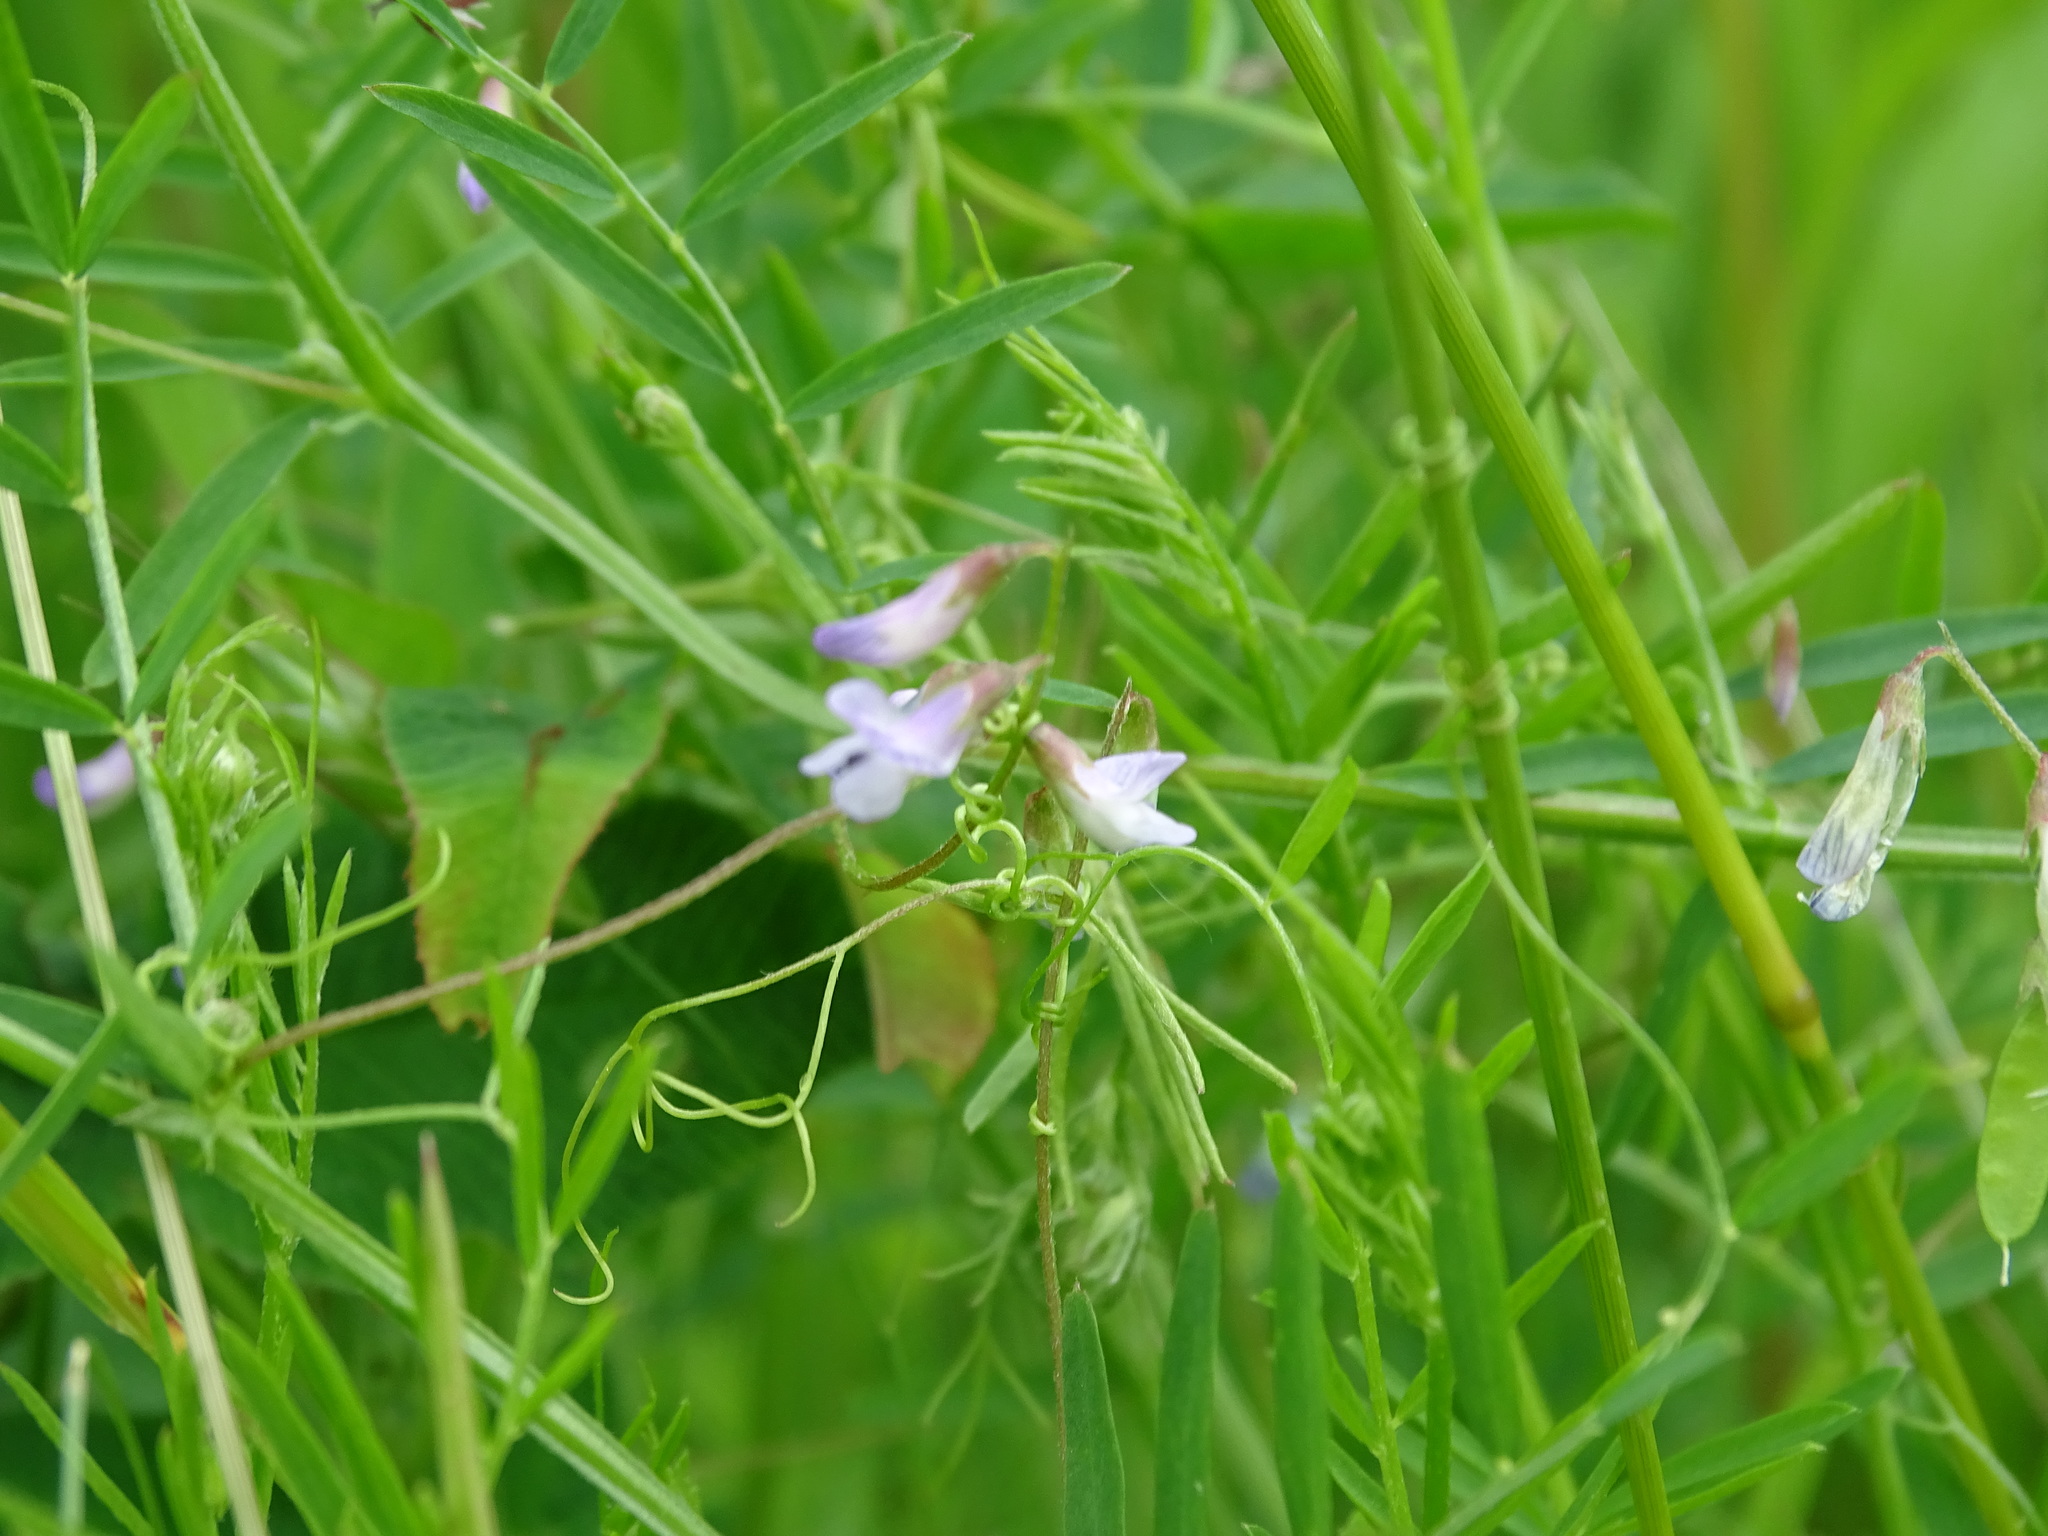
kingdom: Plantae
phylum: Tracheophyta
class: Magnoliopsida
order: Fabales
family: Fabaceae
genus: Vicia
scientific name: Vicia tetrasperma
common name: Smooth tare
